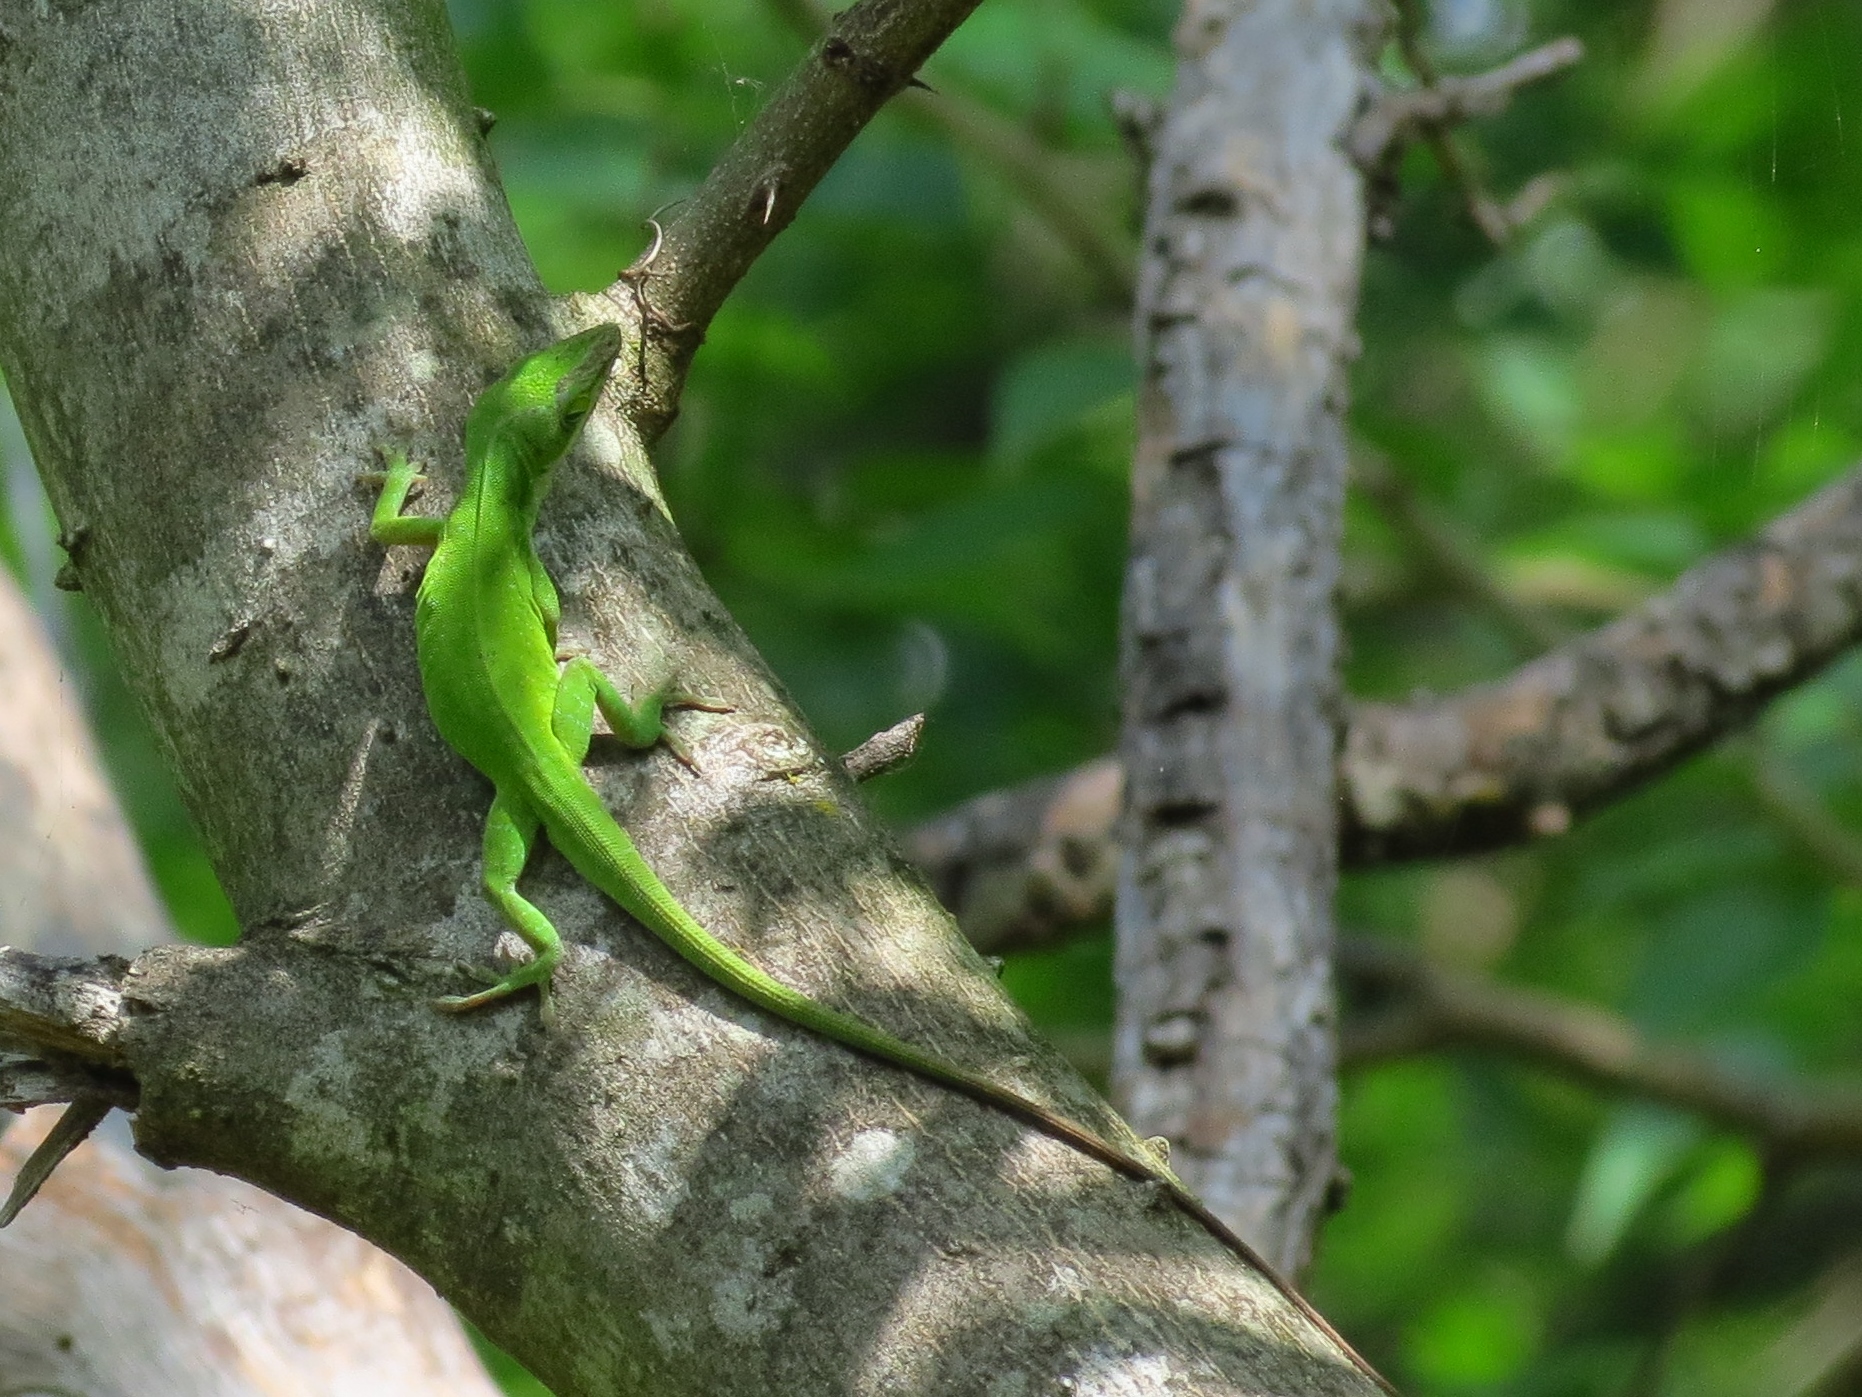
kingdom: Animalia
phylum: Chordata
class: Squamata
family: Dactyloidae
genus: Anolis
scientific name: Anolis carolinensis
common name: Green anole
